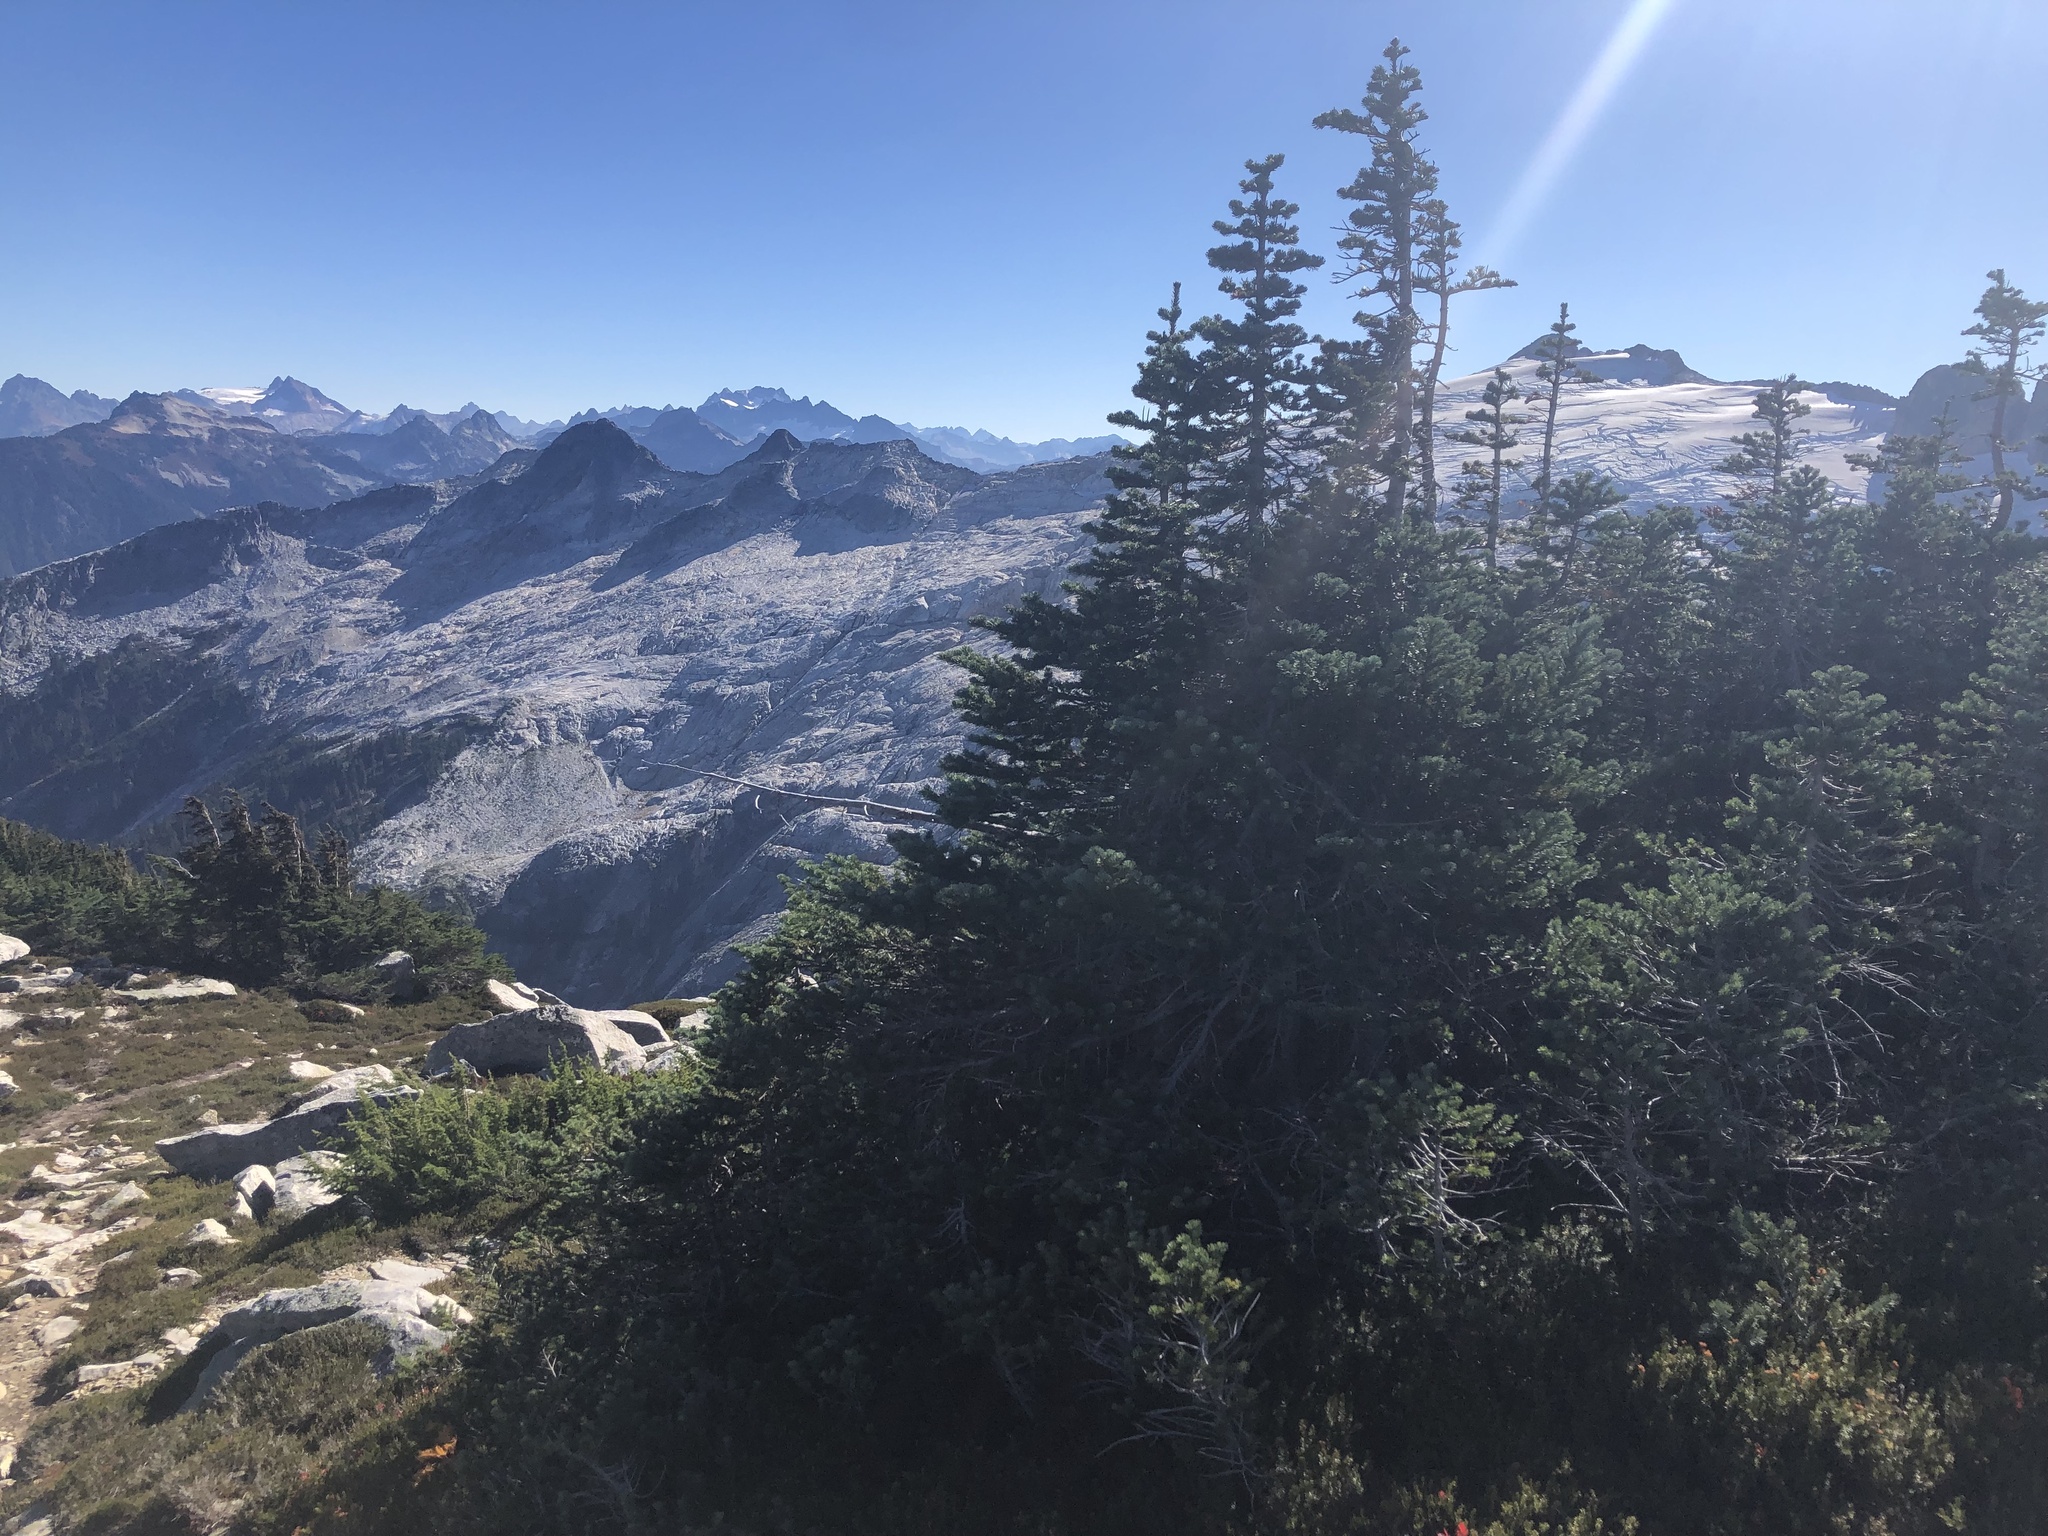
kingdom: Plantae
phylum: Tracheophyta
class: Pinopsida
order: Pinales
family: Pinaceae
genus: Abies
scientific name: Abies lasiocarpa
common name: Subalpine fir
